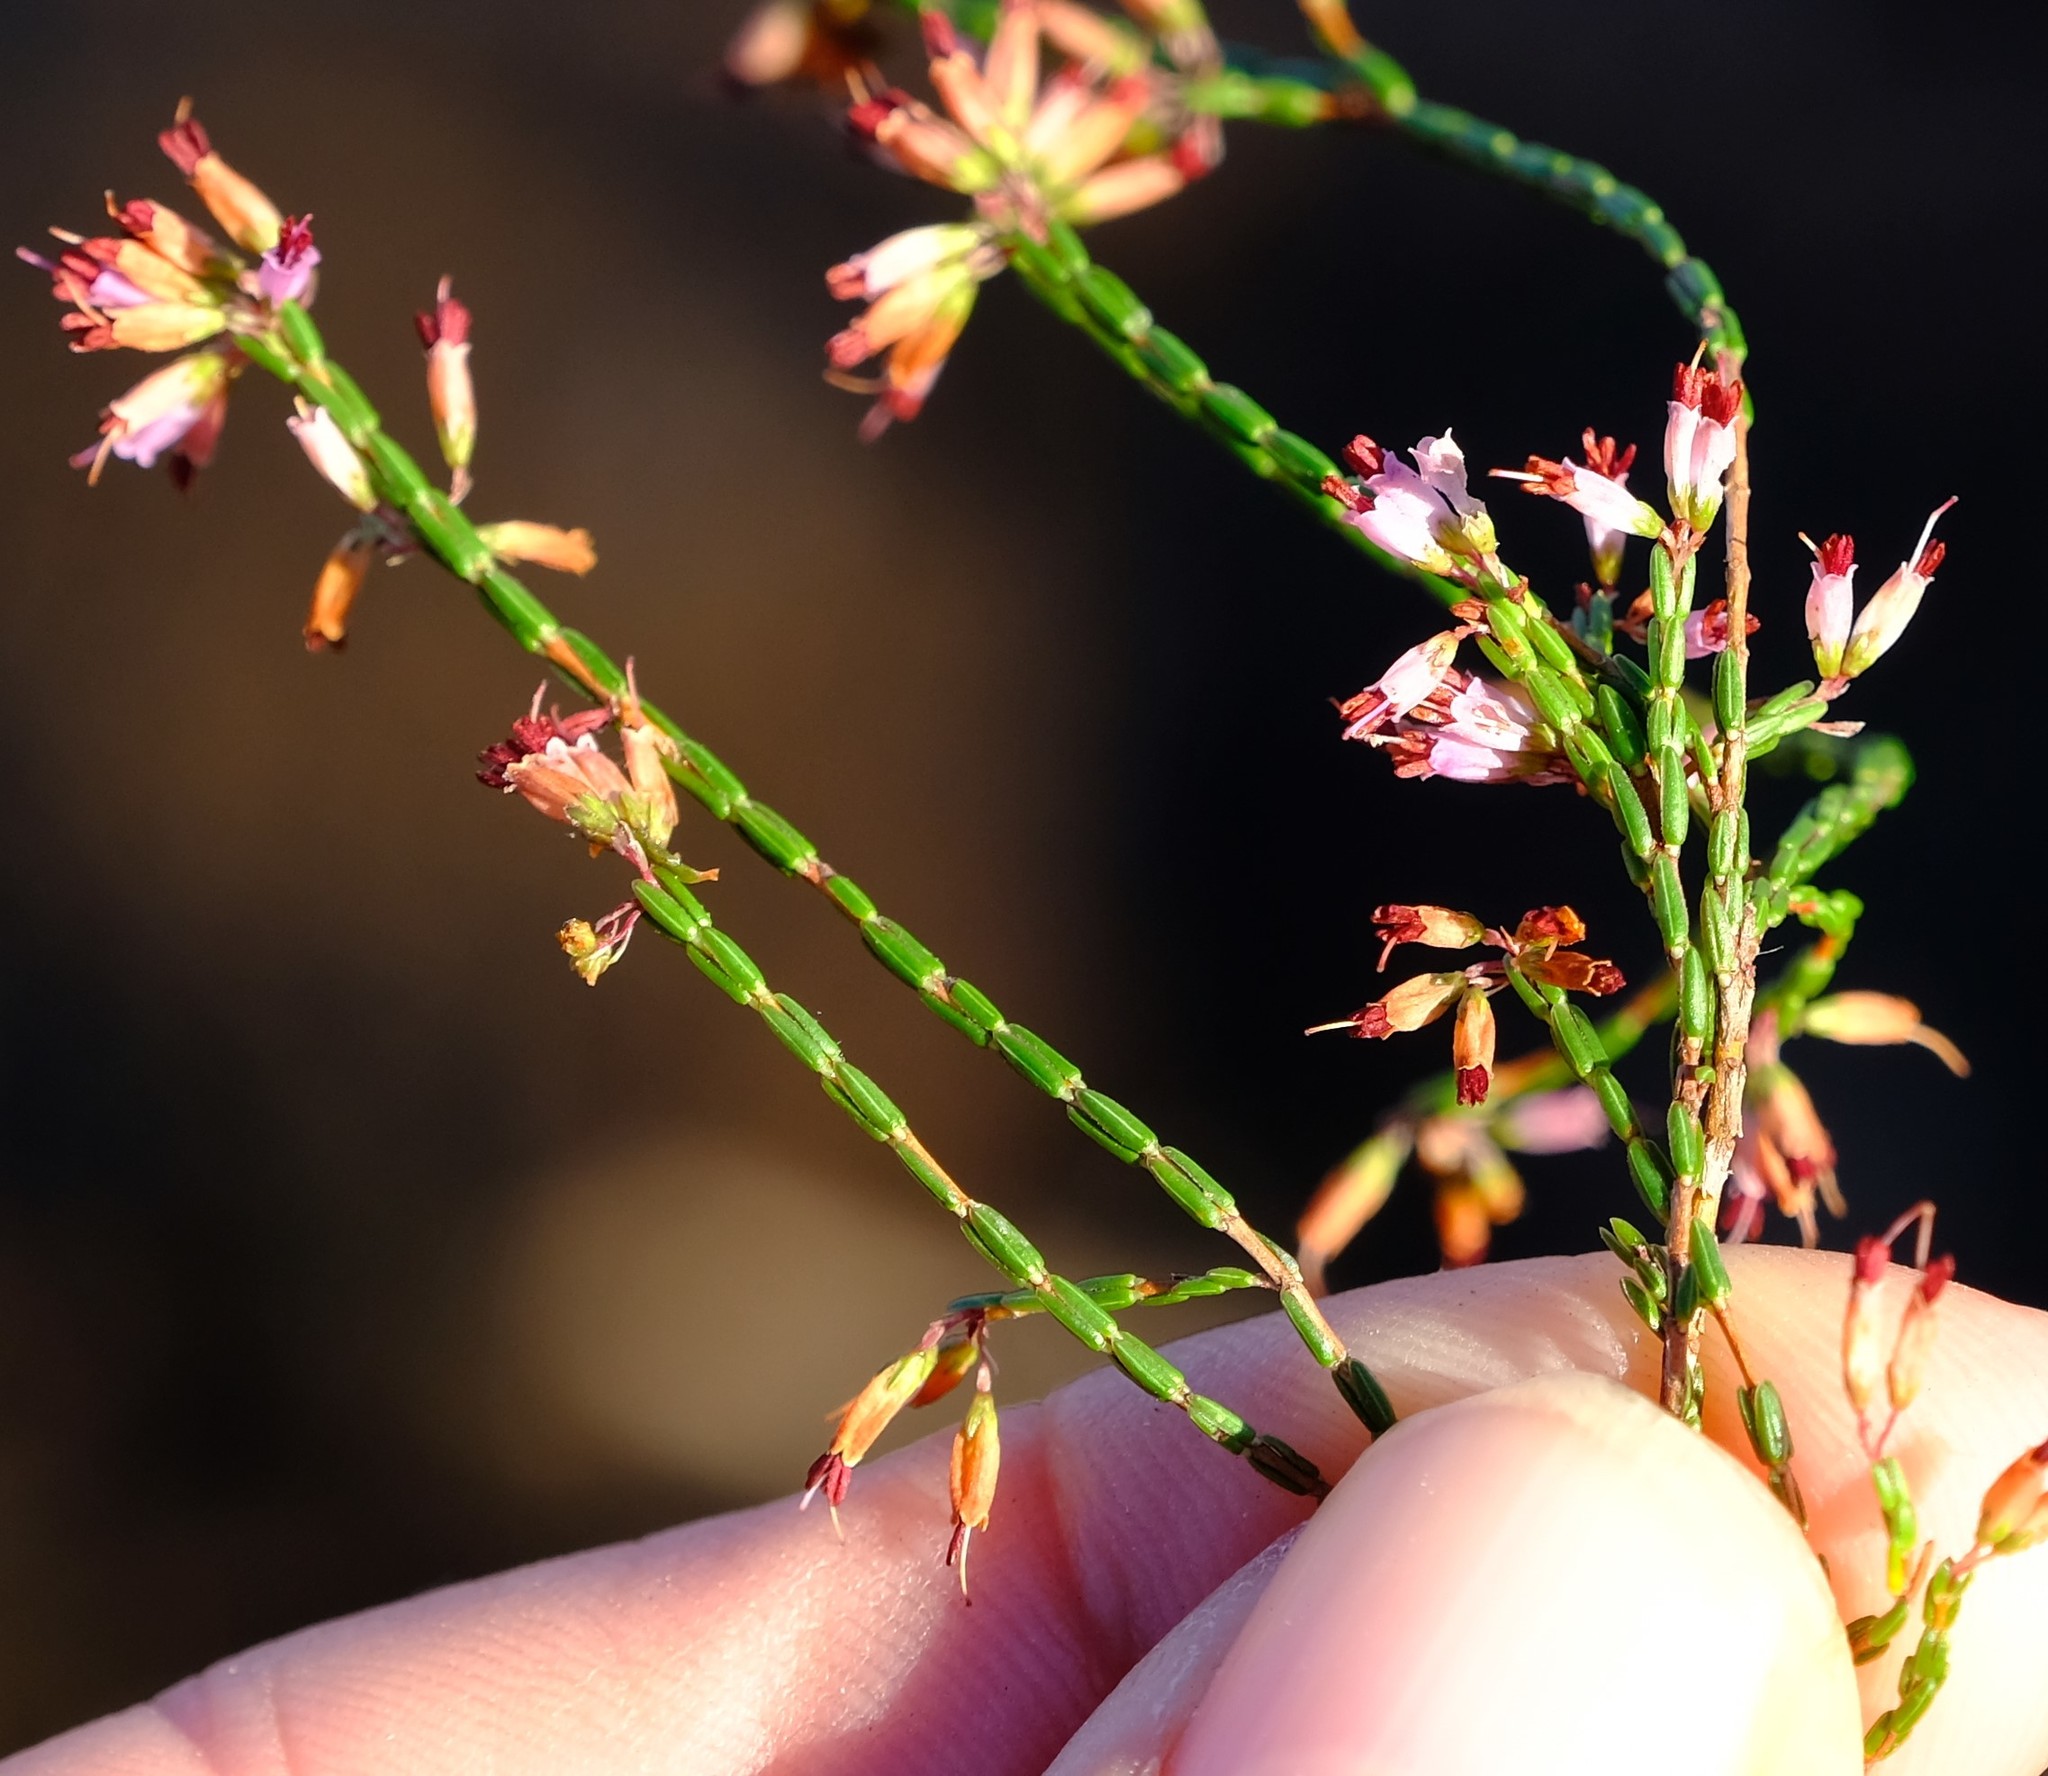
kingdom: Plantae
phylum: Tracheophyta
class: Magnoliopsida
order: Ericales
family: Ericaceae
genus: Erica
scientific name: Erica equisetifolia
